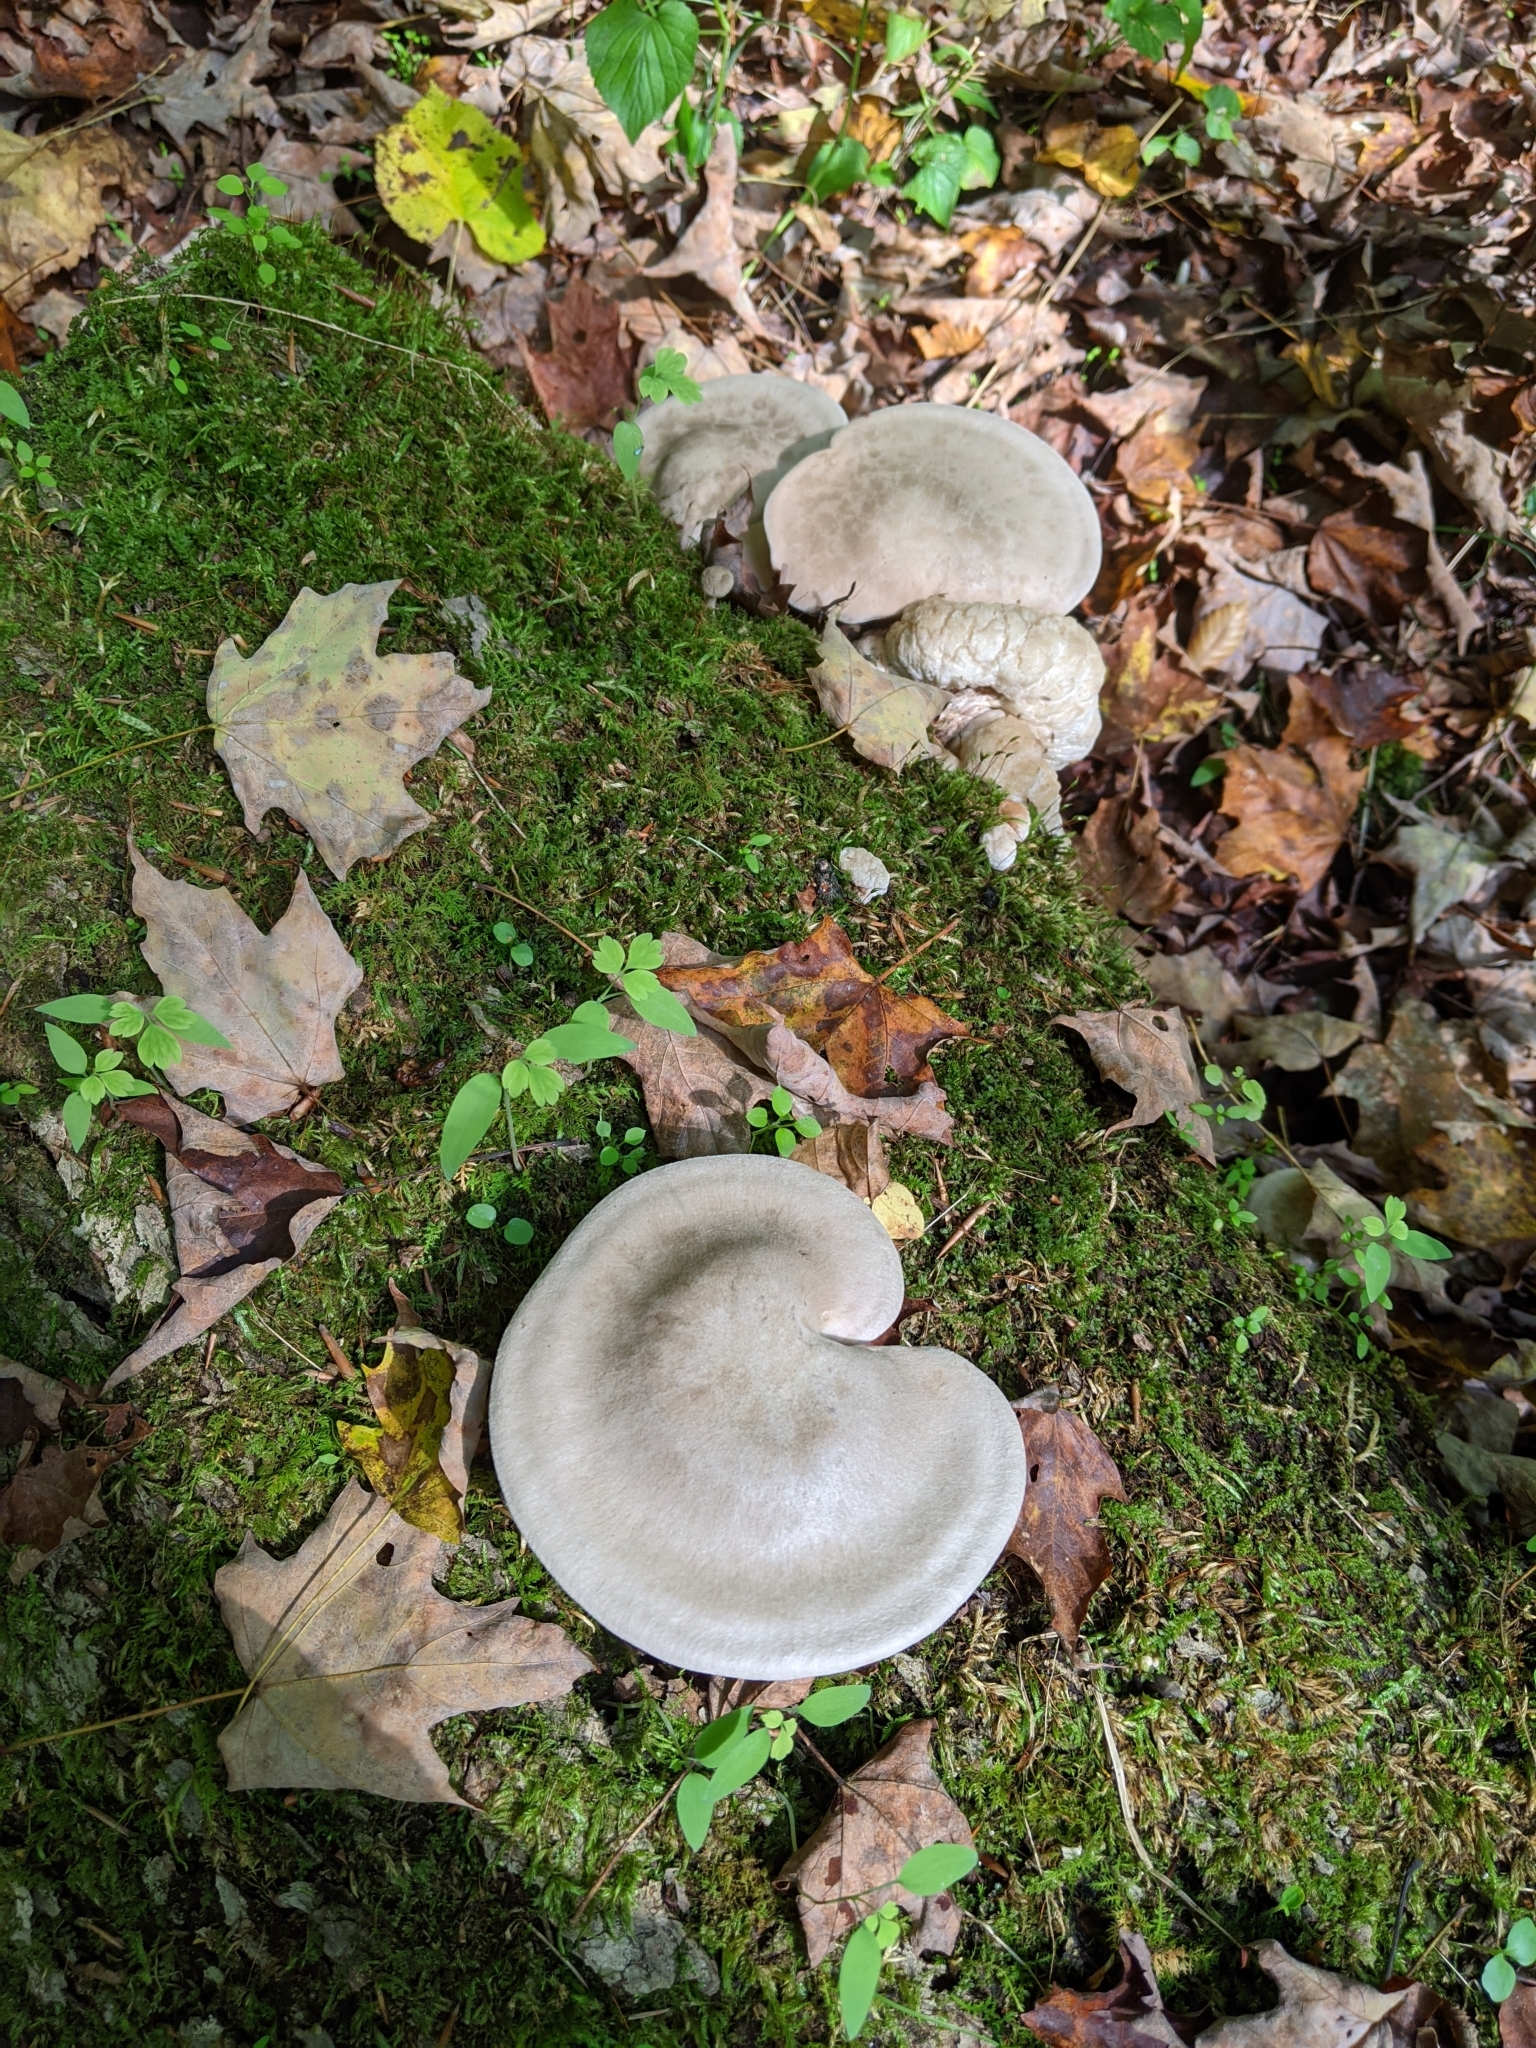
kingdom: Fungi
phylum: Basidiomycota
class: Agaricomycetes
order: Agaricales
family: Entolomataceae
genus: Entoloma
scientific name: Entoloma abortivum
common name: Aborted entoloma
